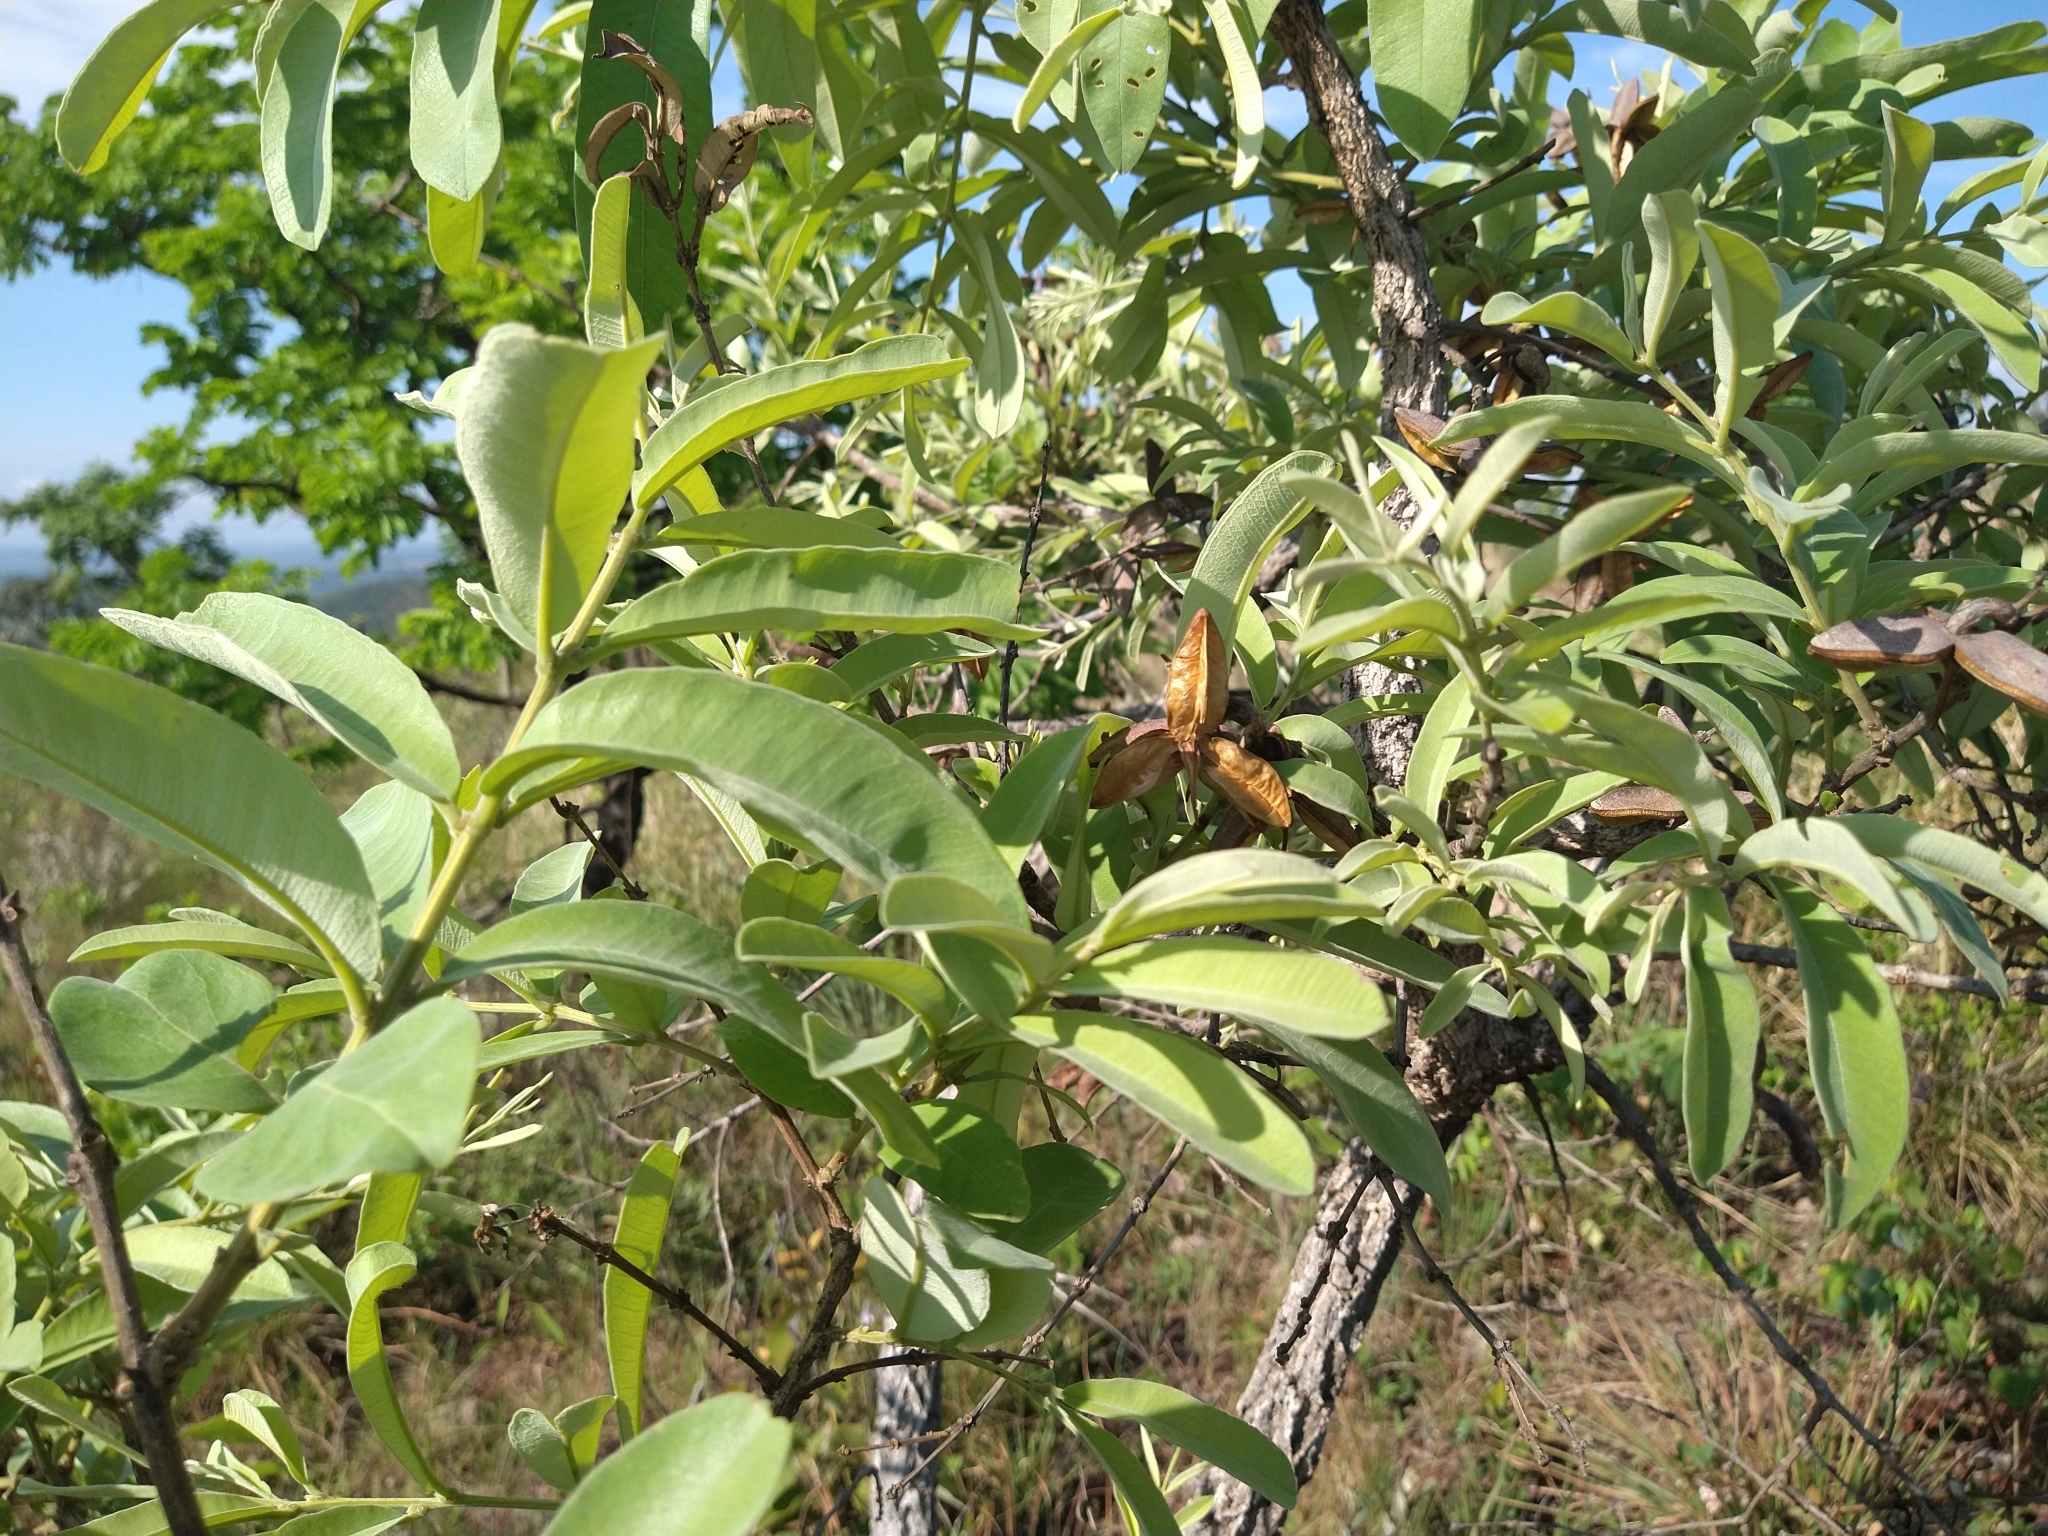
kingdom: Plantae
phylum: Tracheophyta
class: Magnoliopsida
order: Myrtales
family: Vochysiaceae
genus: Qualea
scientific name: Qualea parviflora
